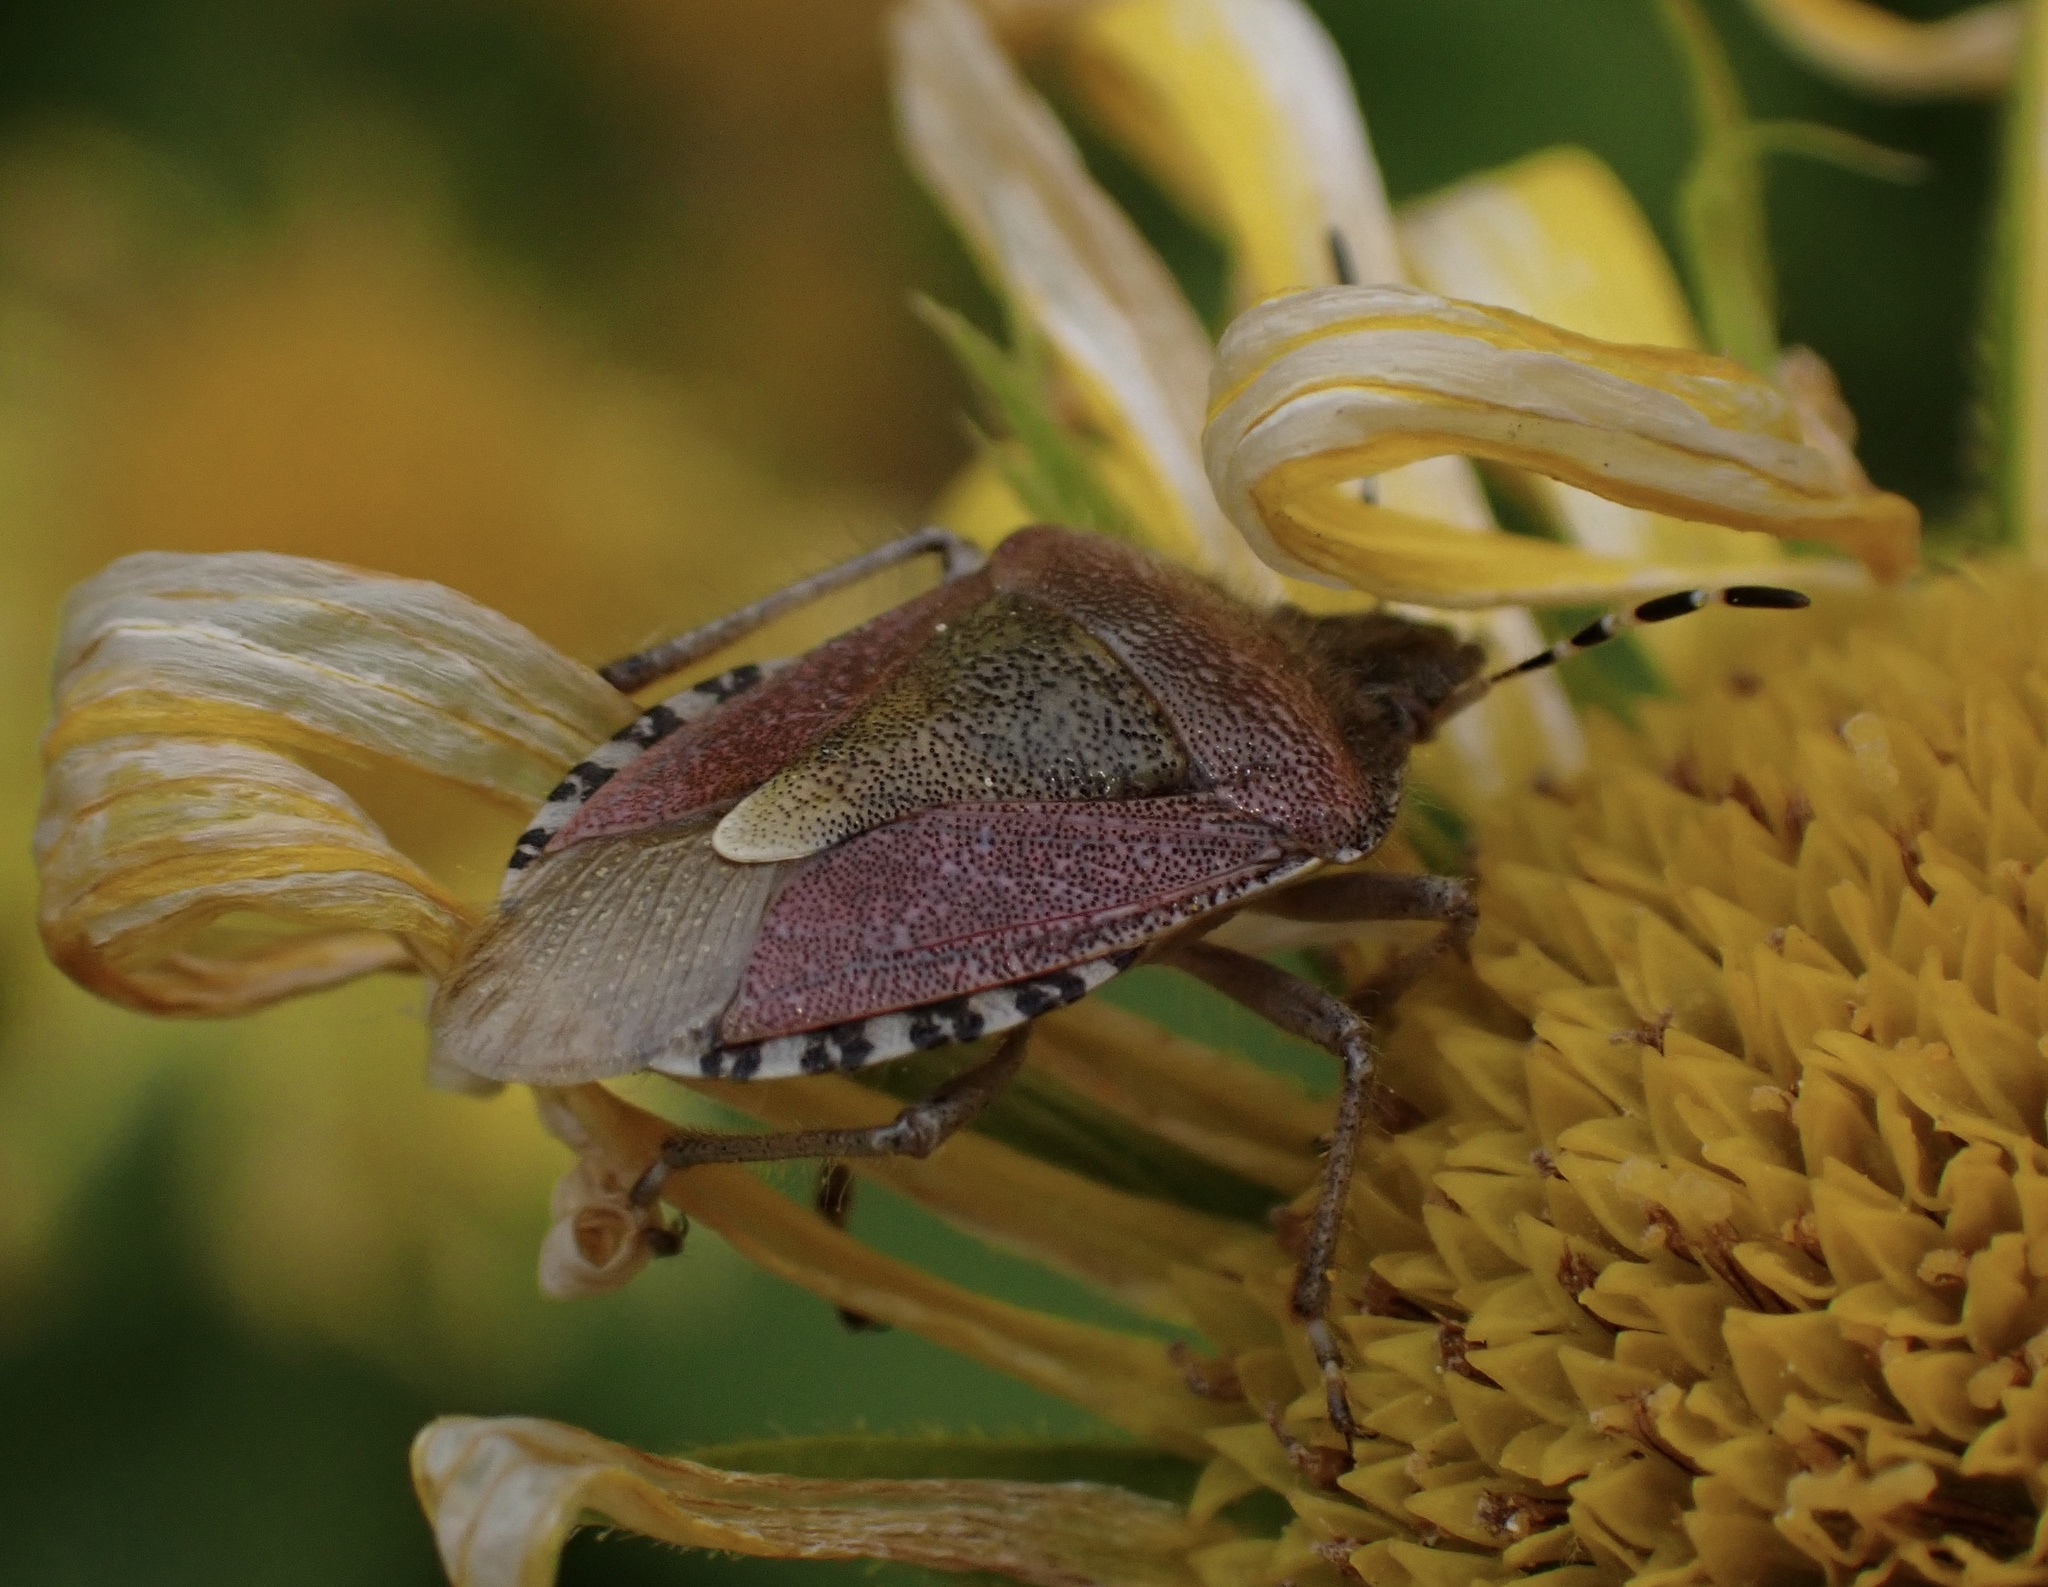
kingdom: Animalia
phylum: Arthropoda
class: Insecta
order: Hemiptera
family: Pentatomidae
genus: Dolycoris
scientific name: Dolycoris baccarum
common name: Sloe bug
